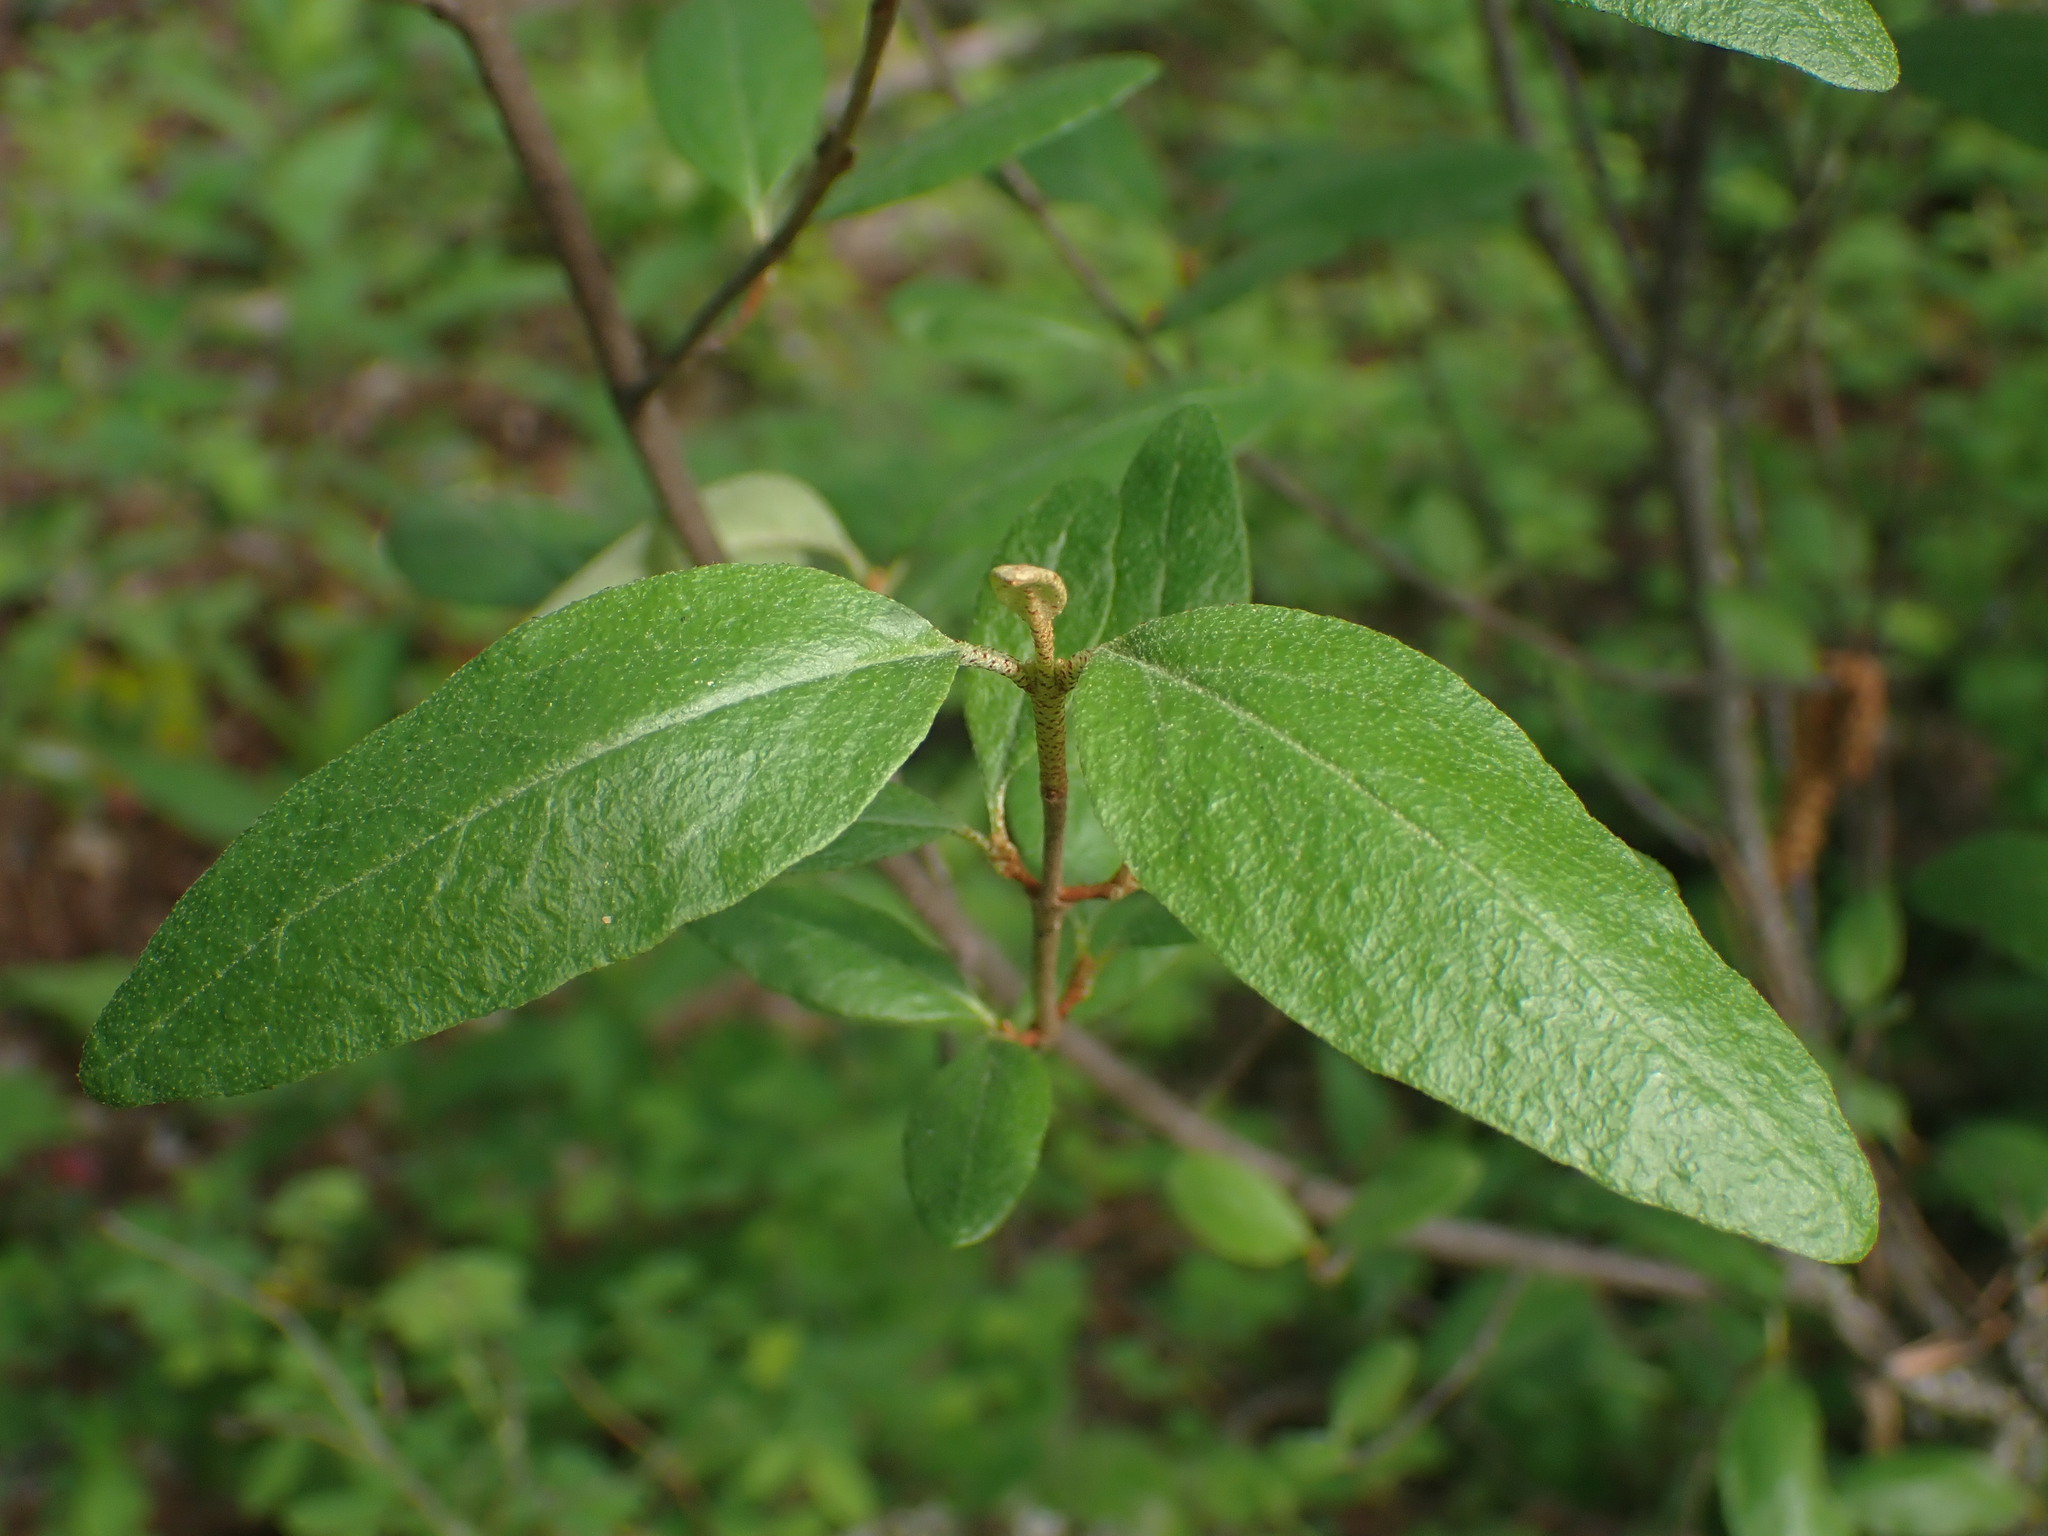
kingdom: Plantae
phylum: Tracheophyta
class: Magnoliopsida
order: Rosales
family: Elaeagnaceae
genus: Shepherdia
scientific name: Shepherdia canadensis
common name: Soapberry
